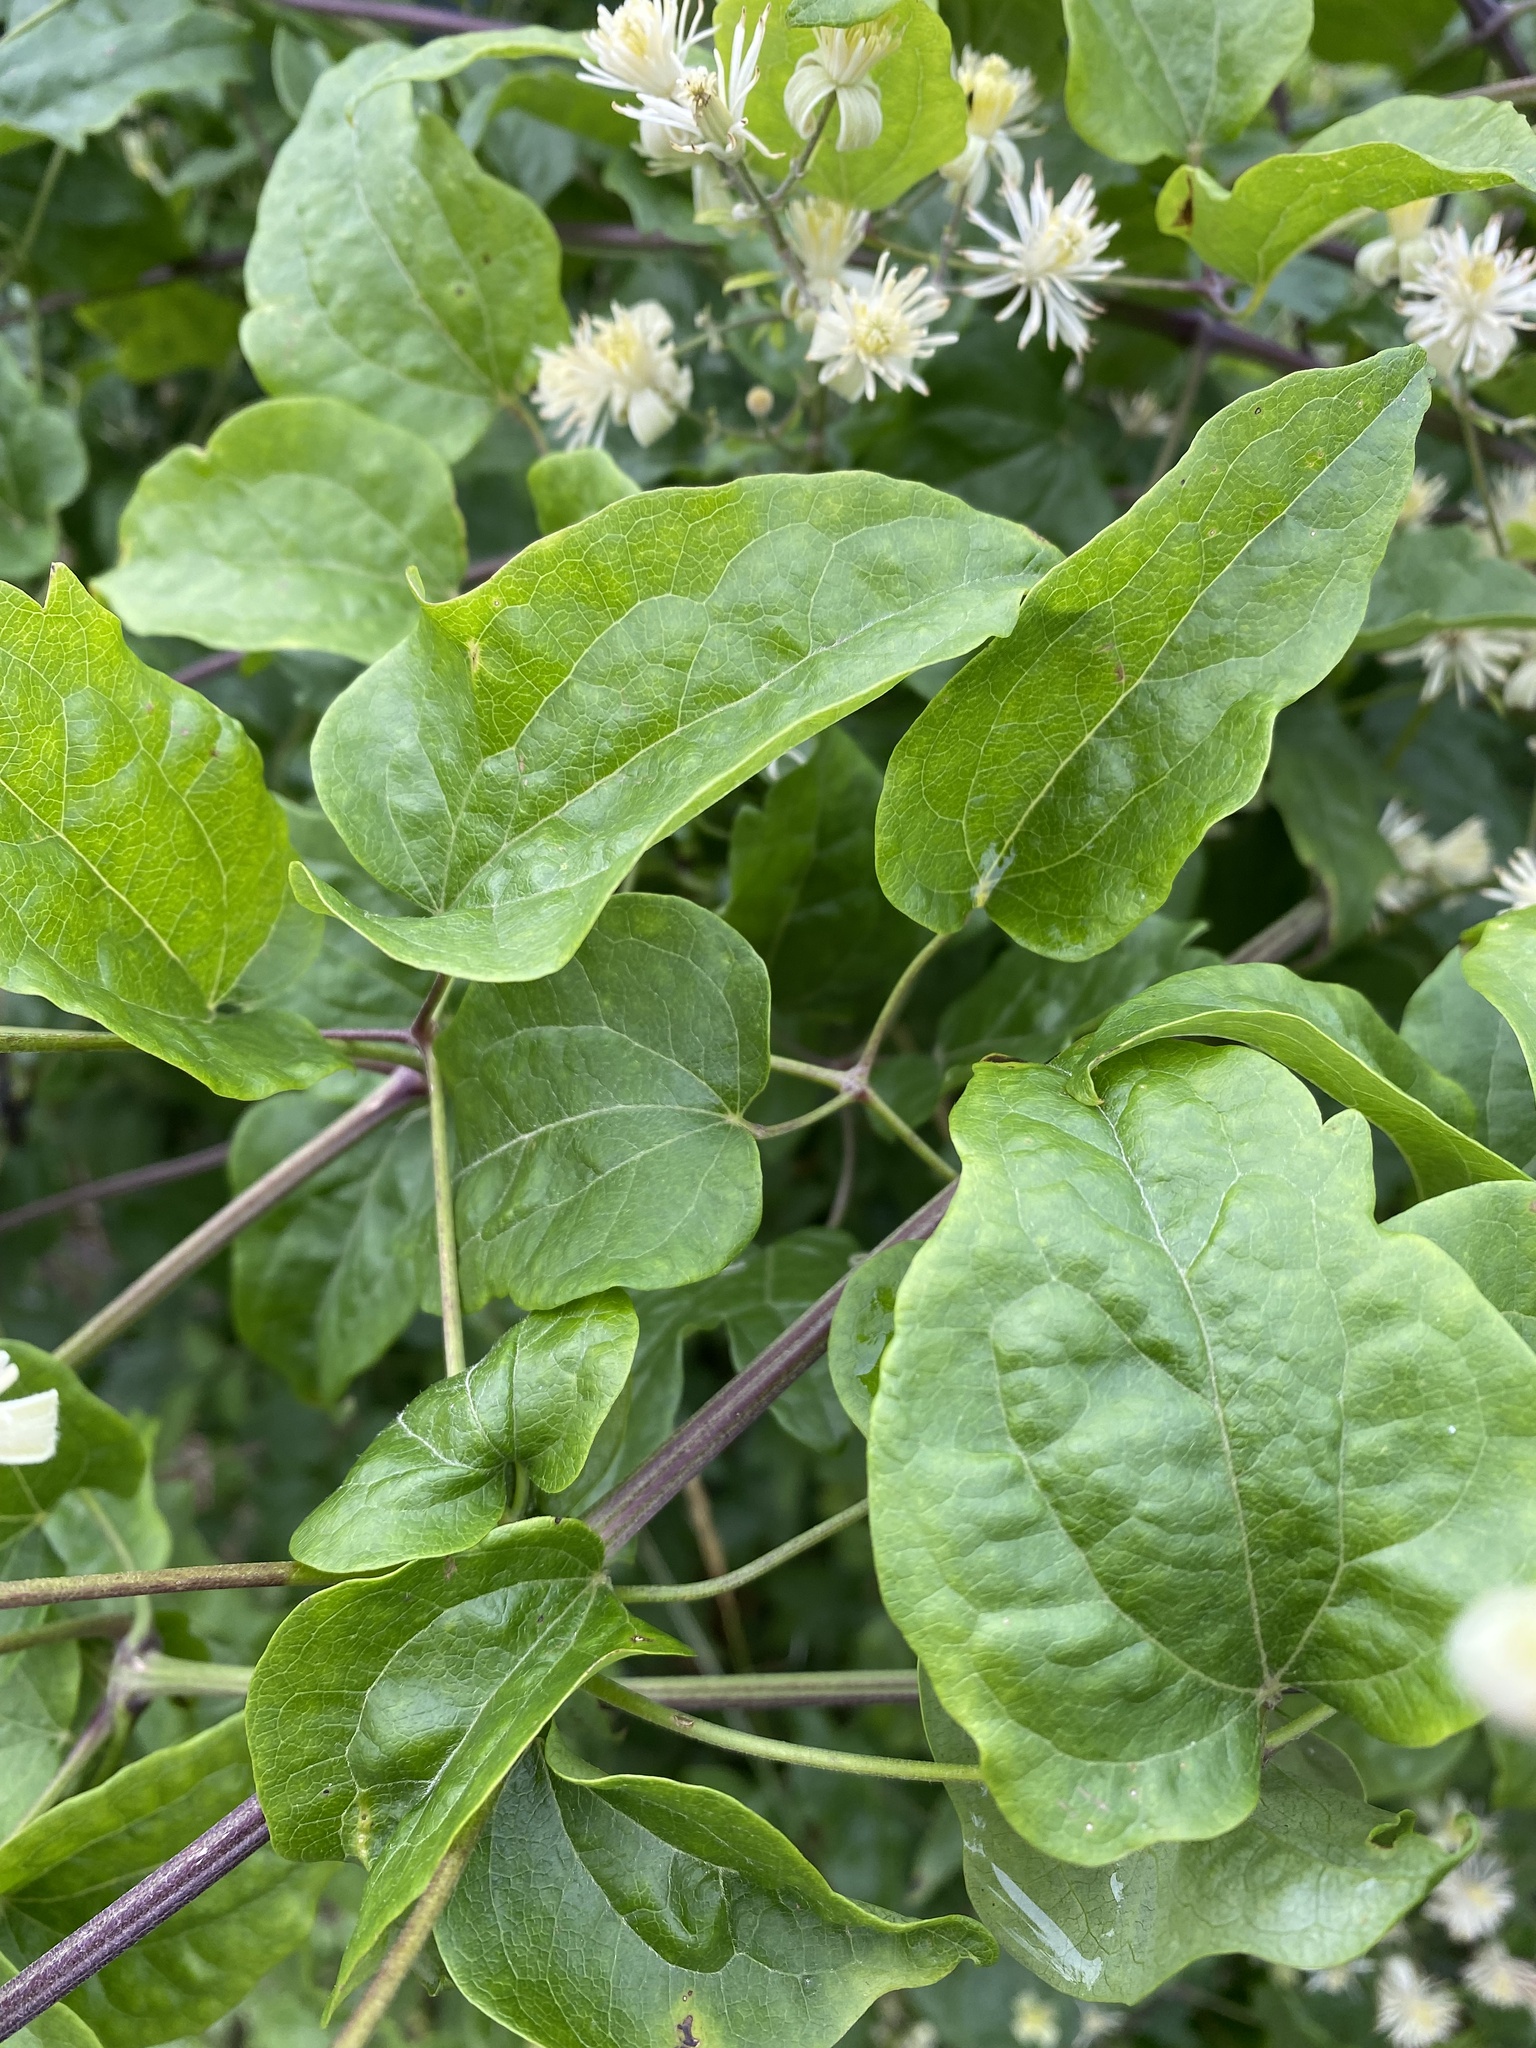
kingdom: Plantae
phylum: Tracheophyta
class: Magnoliopsida
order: Ranunculales
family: Ranunculaceae
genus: Clematis
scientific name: Clematis vitalba
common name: Evergreen clematis
